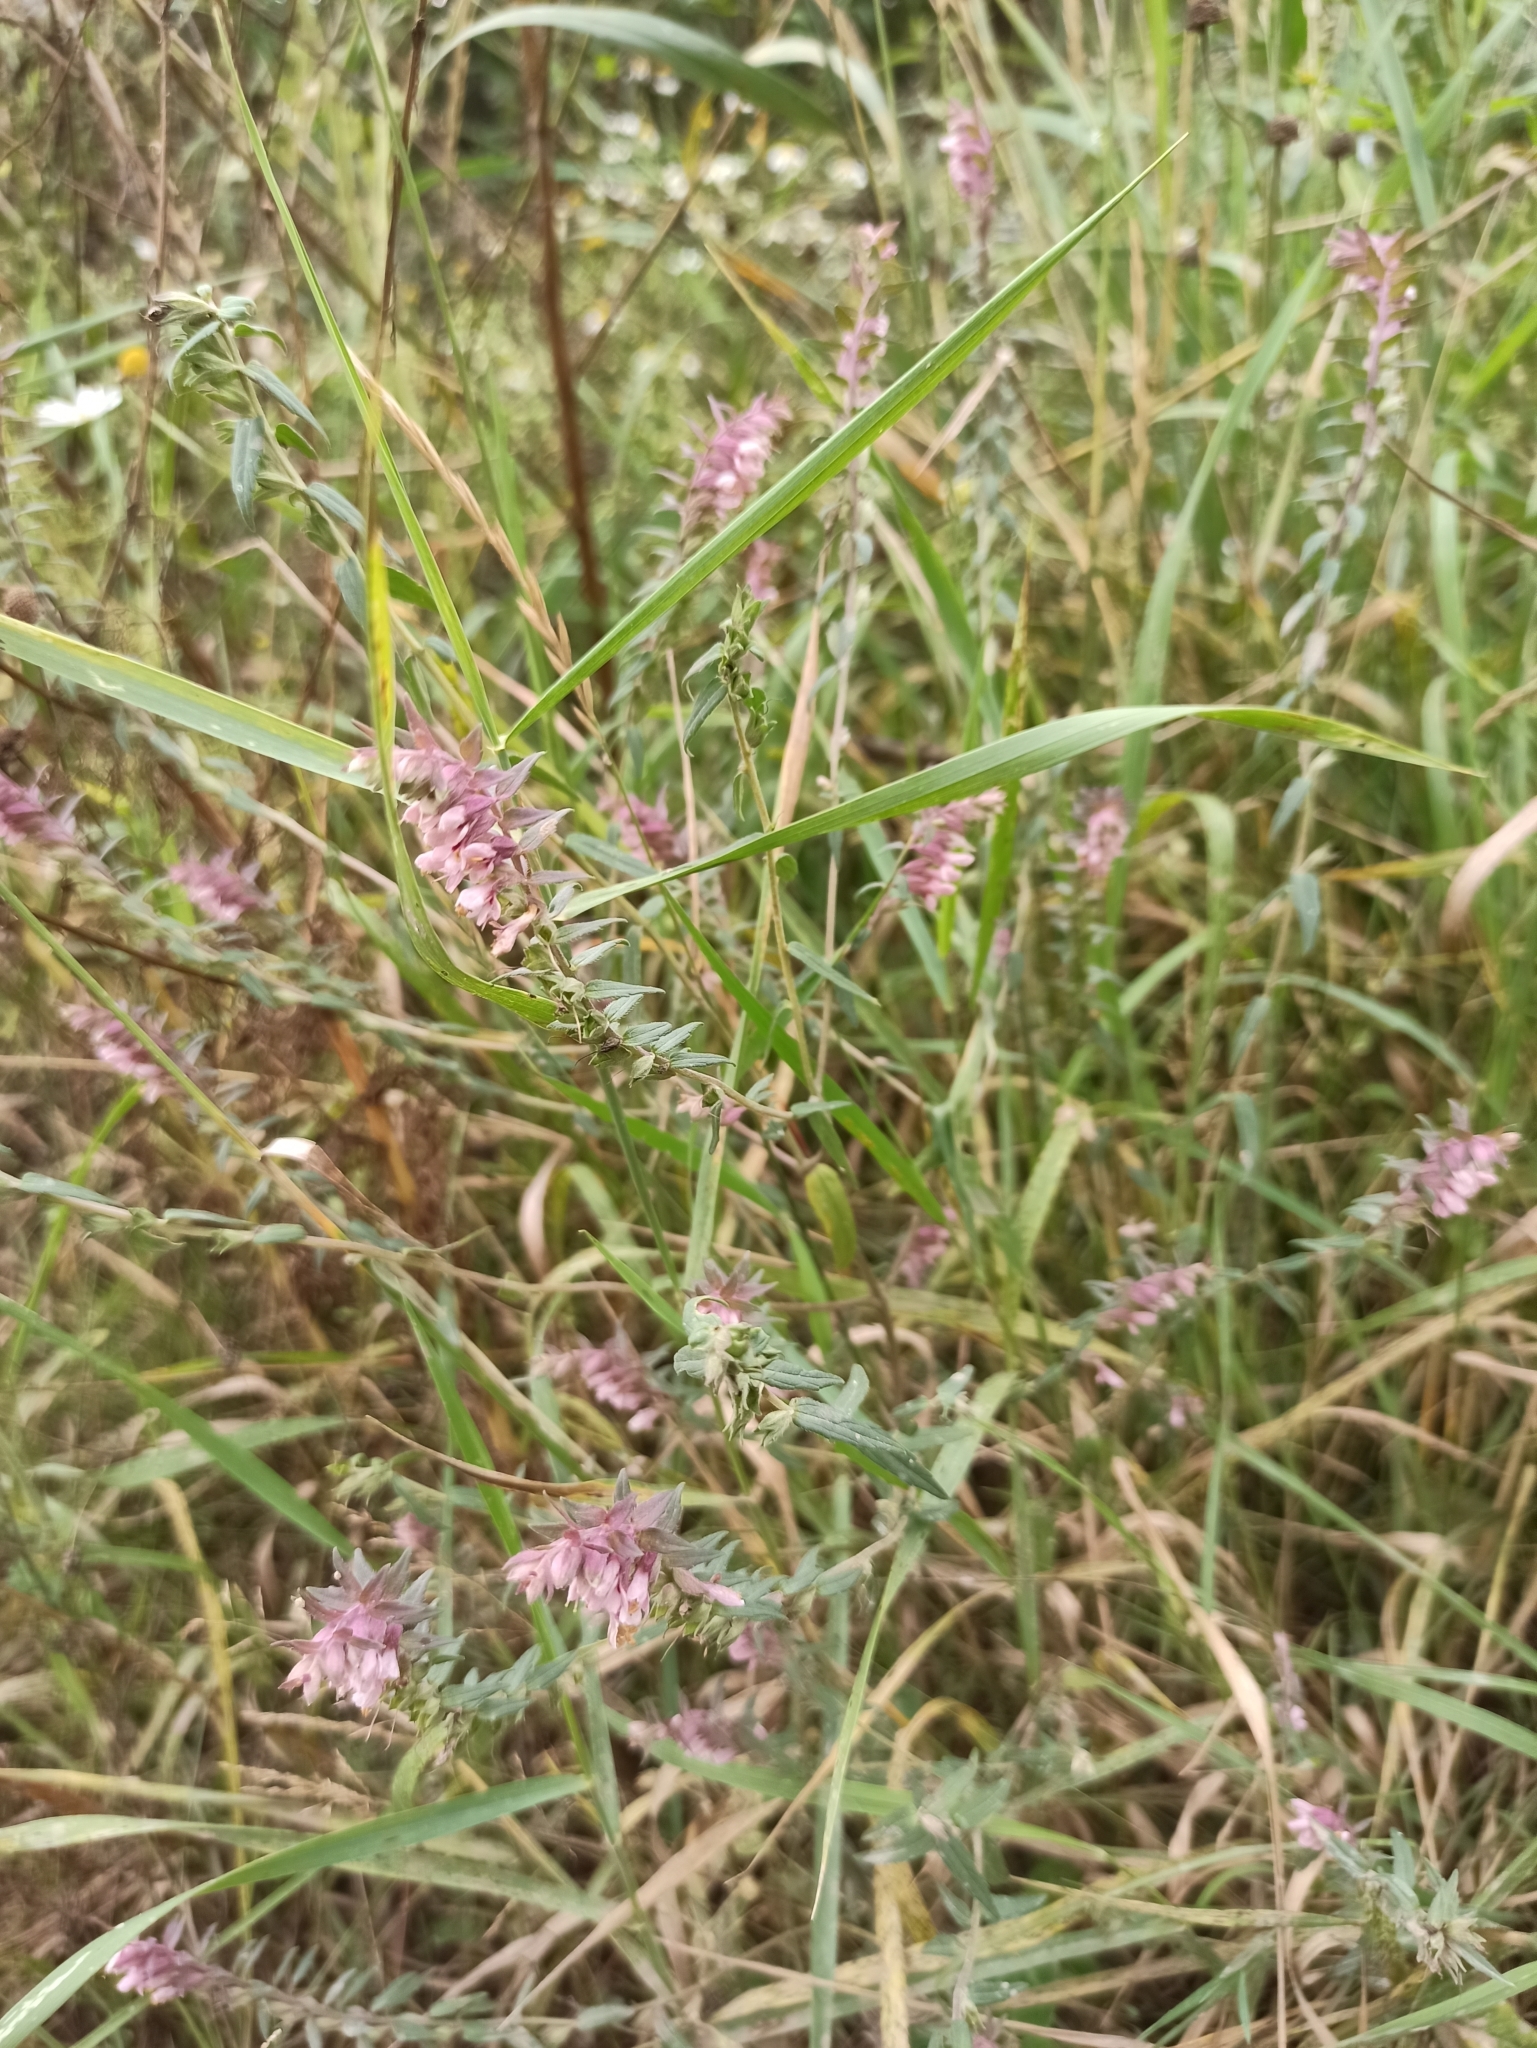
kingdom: Plantae
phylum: Tracheophyta
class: Magnoliopsida
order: Lamiales
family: Orobanchaceae
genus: Odontites
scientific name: Odontites vulgaris
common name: Broomrape
